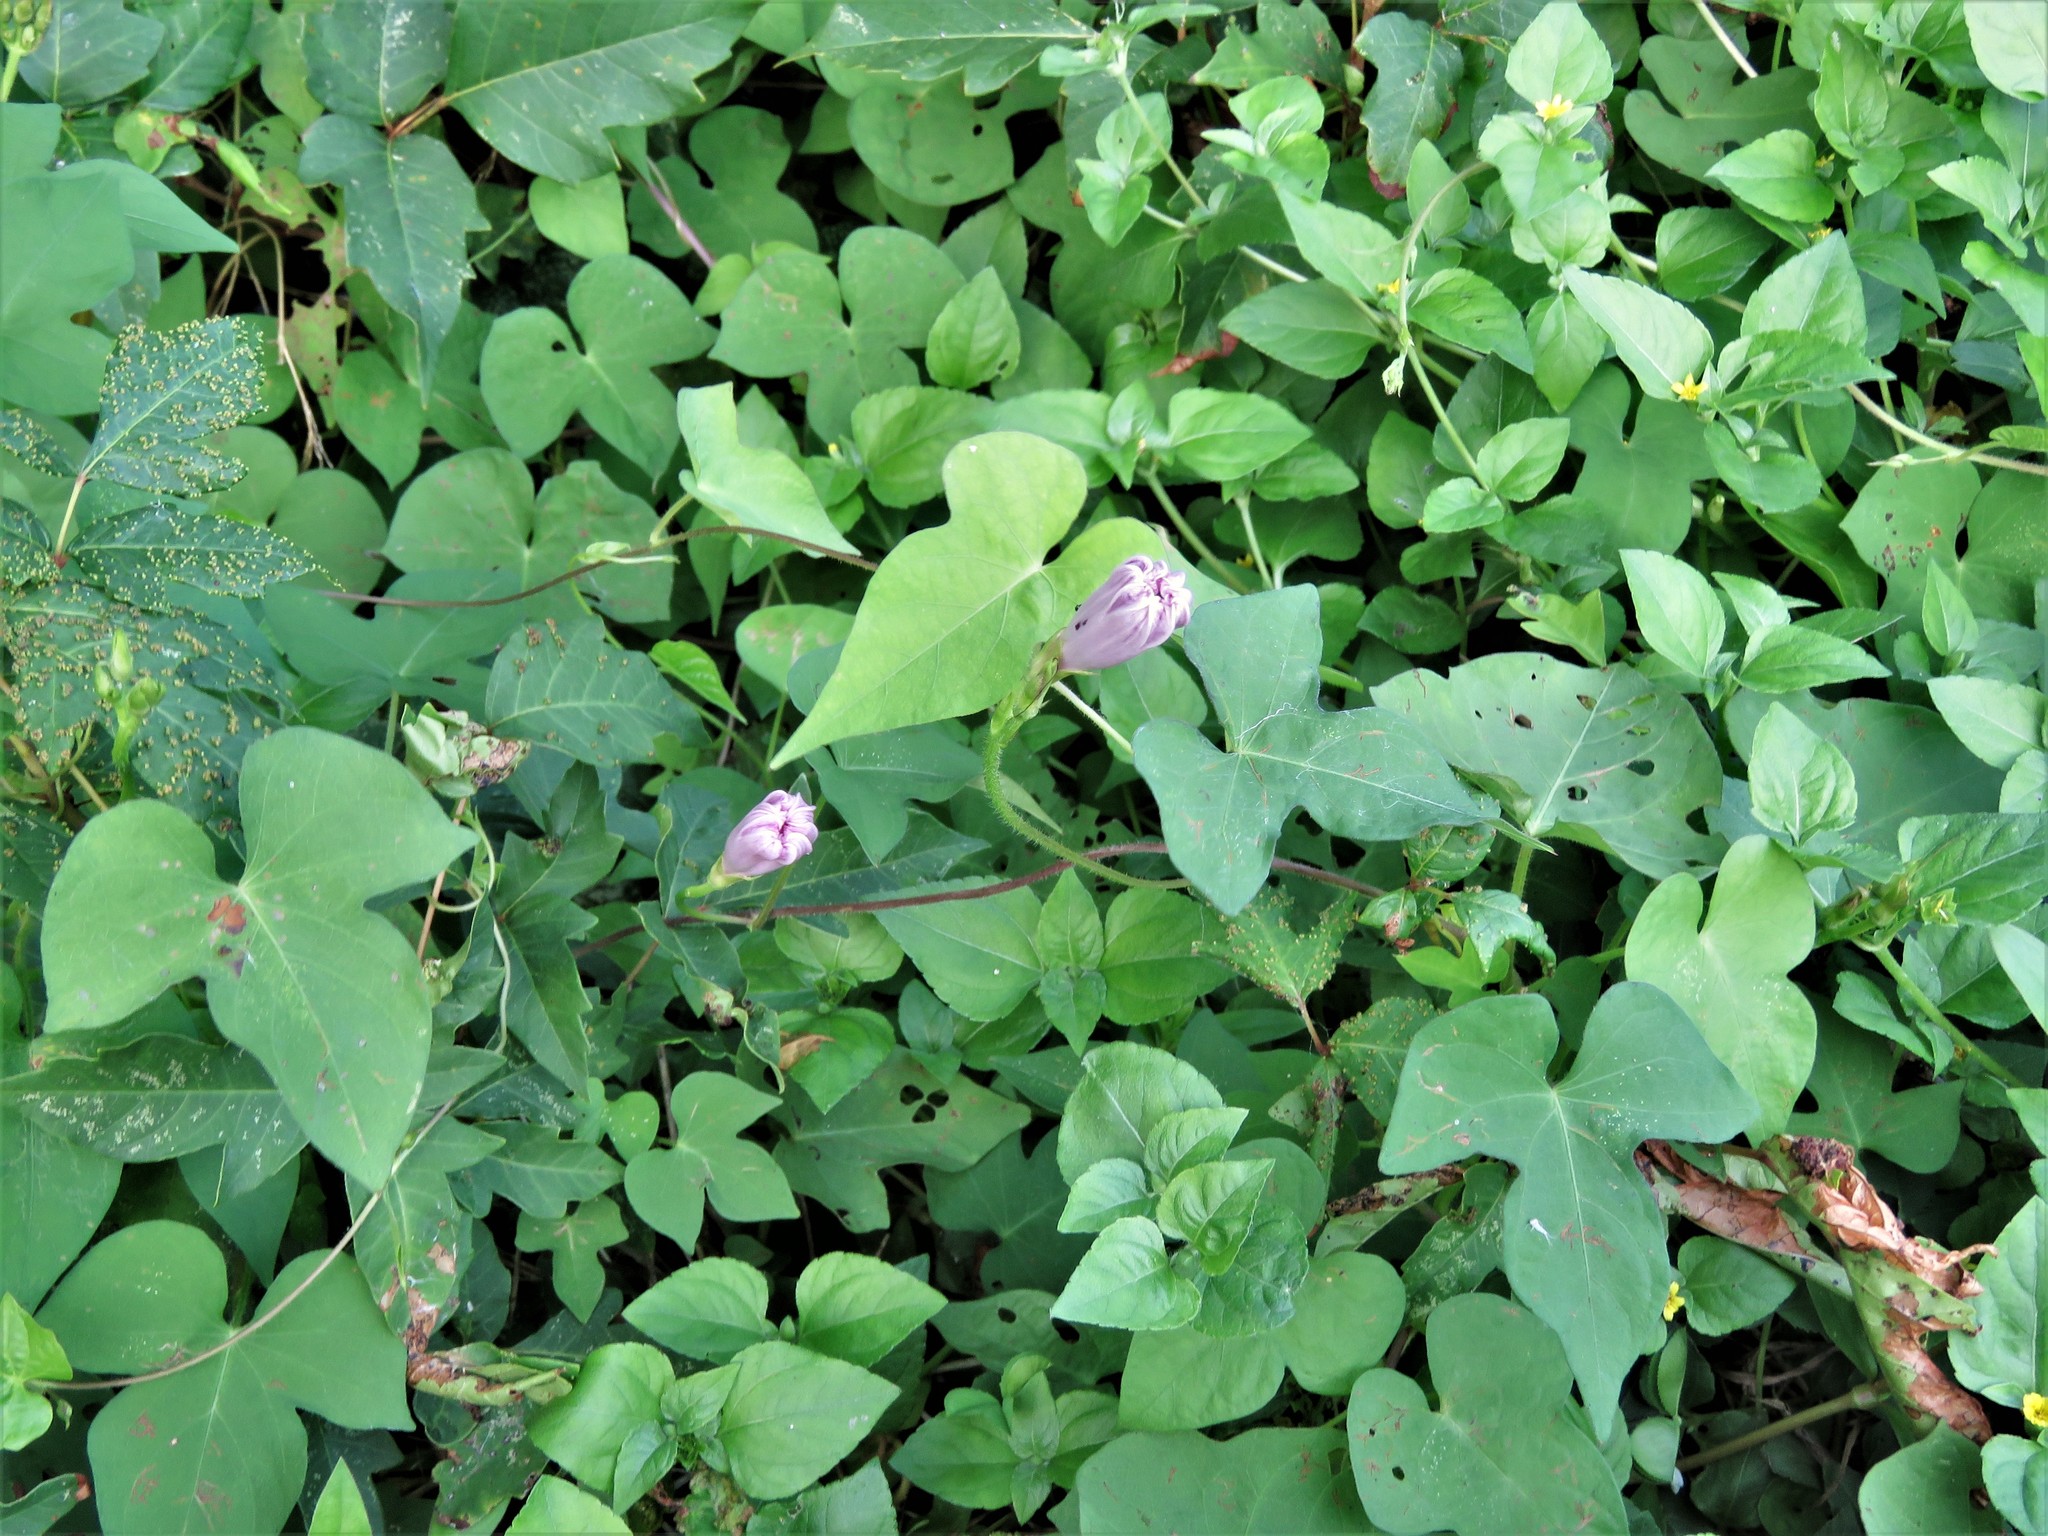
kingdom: Plantae
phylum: Tracheophyta
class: Magnoliopsida
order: Solanales
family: Convolvulaceae
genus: Ipomoea
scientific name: Ipomoea cordatotriloba
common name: Cotton morning glory
